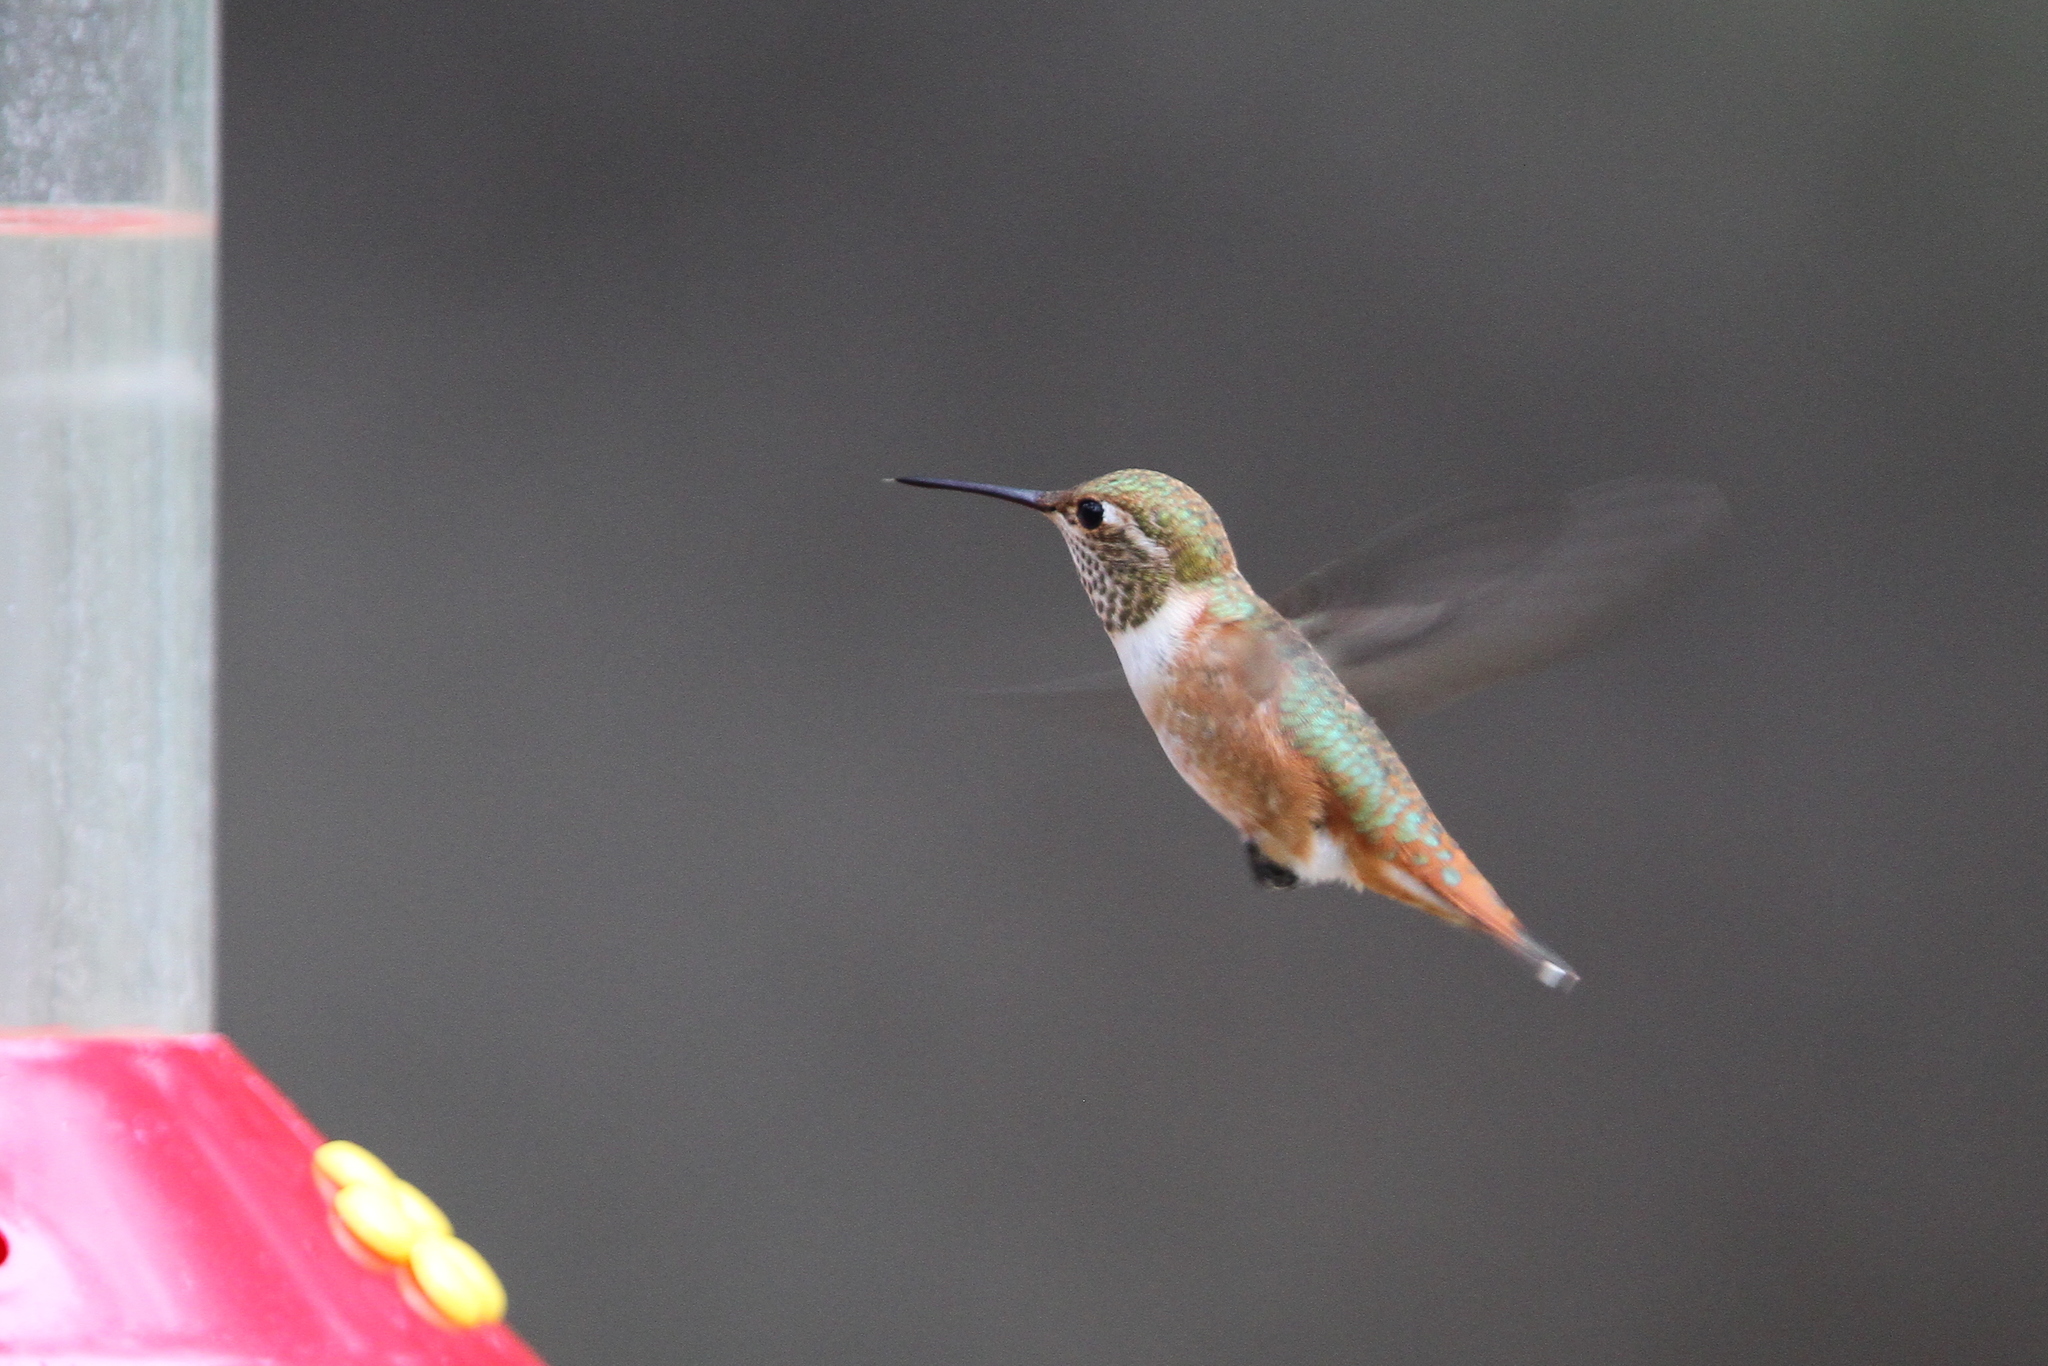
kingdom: Animalia
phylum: Chordata
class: Aves
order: Apodiformes
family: Trochilidae
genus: Selasphorus
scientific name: Selasphorus rufus
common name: Rufous hummingbird
